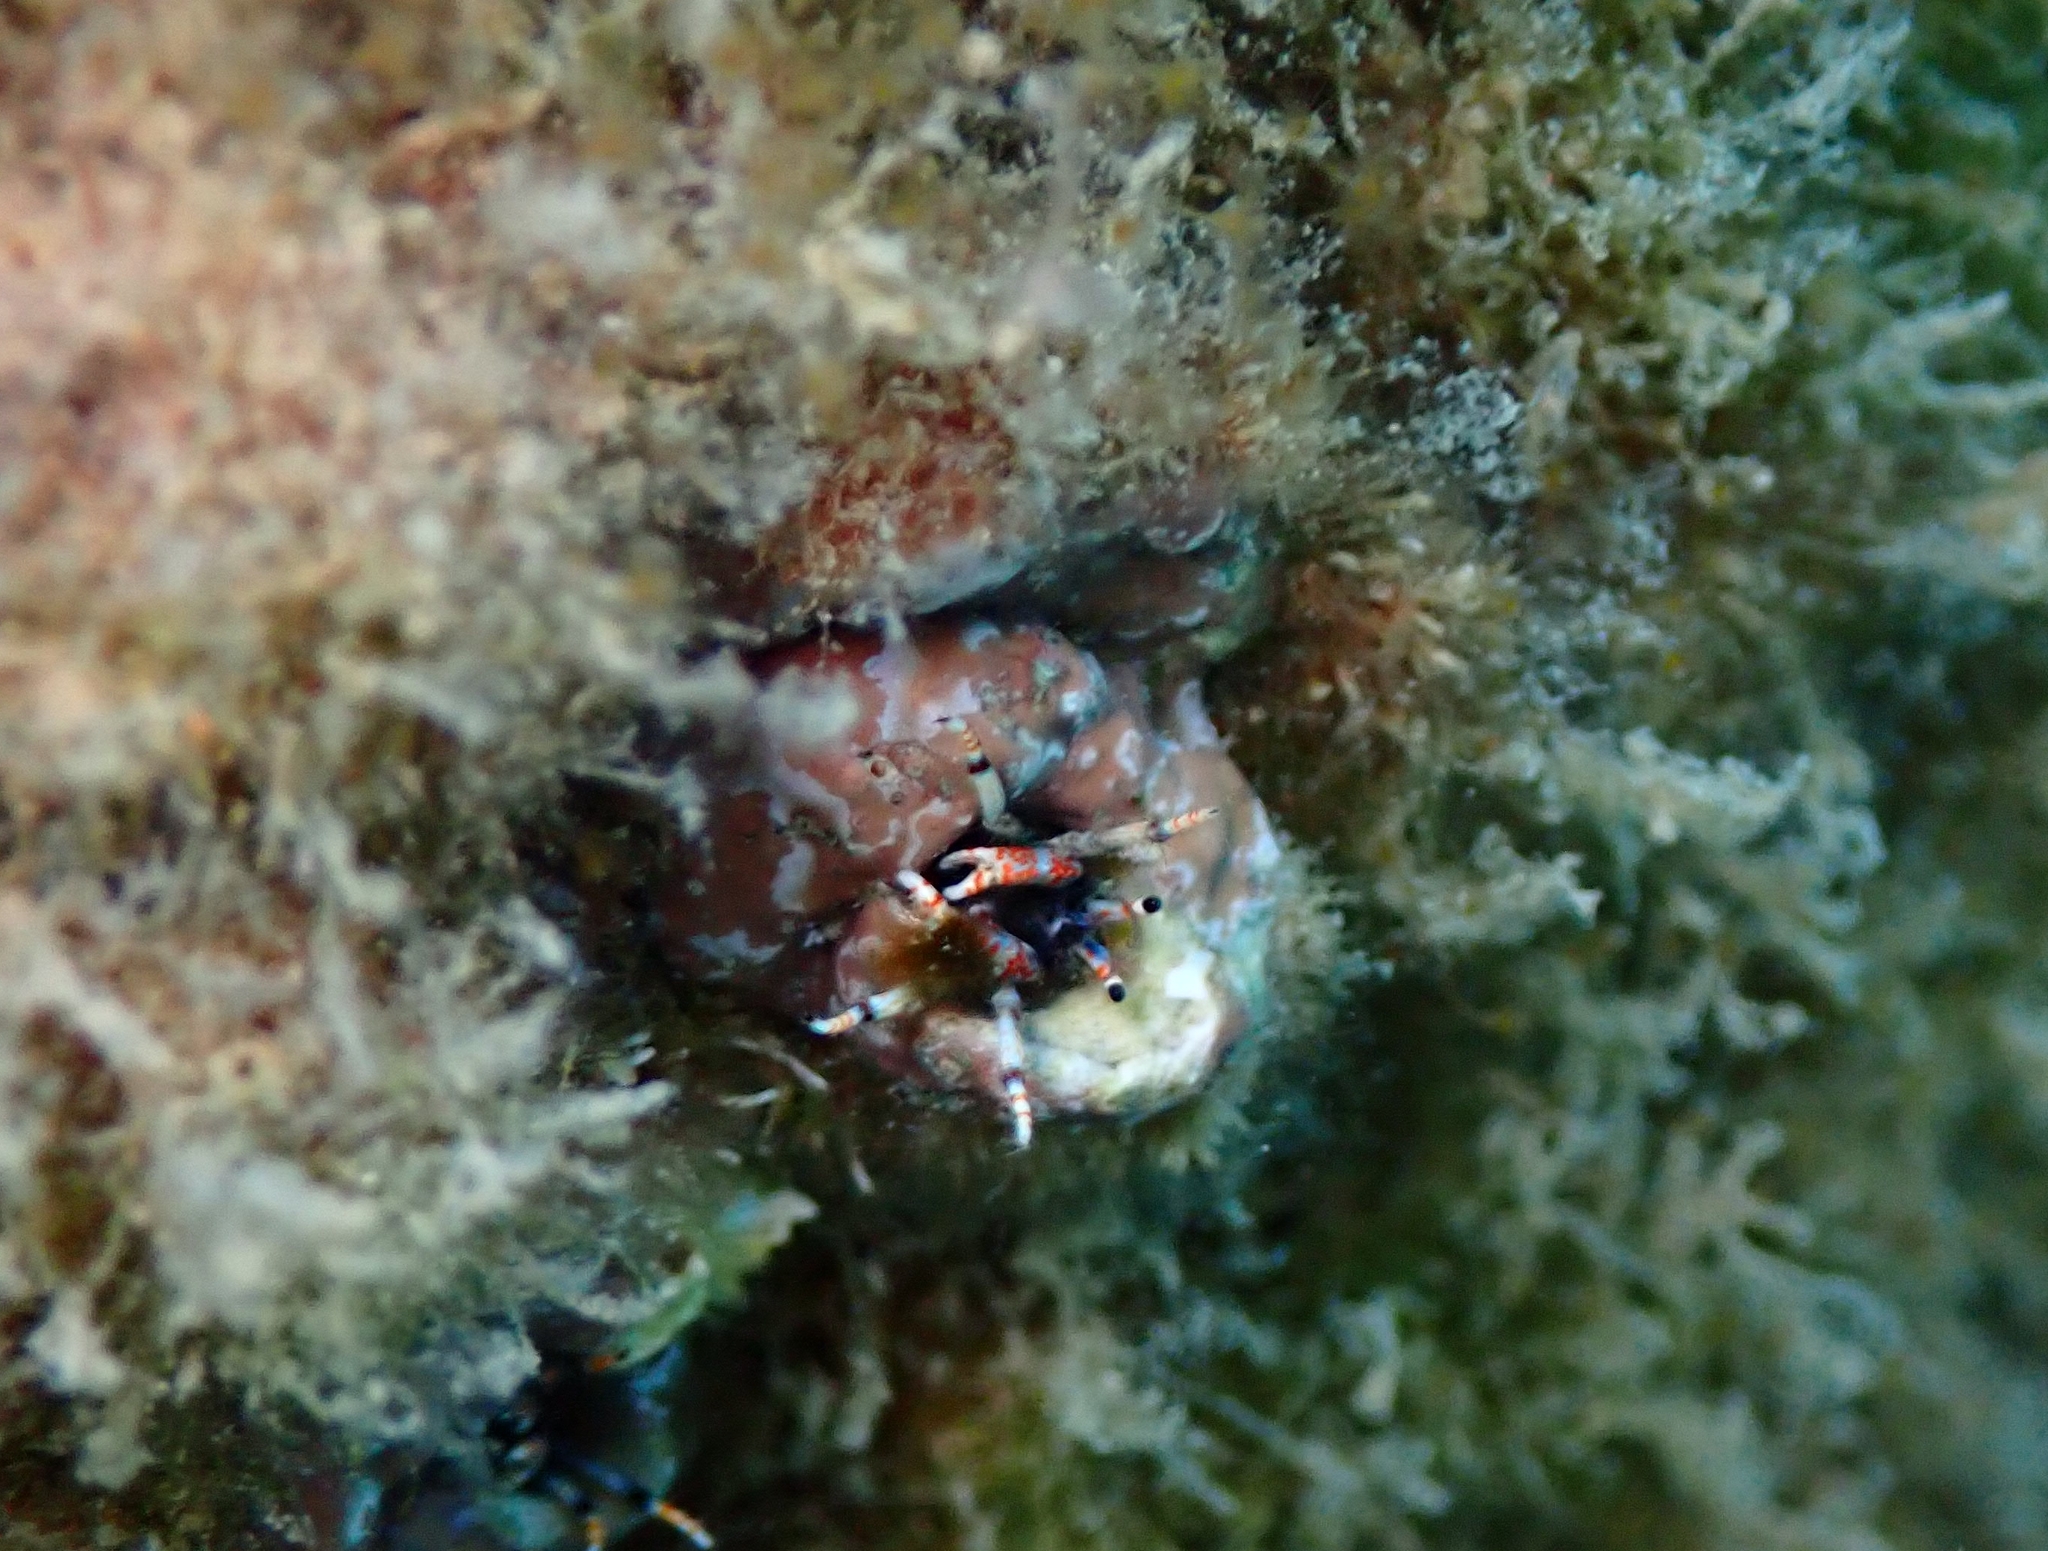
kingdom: Animalia
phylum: Arthropoda
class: Malacostraca
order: Decapoda
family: Diogenidae
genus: Calcinus
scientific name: Calcinus tubularis
